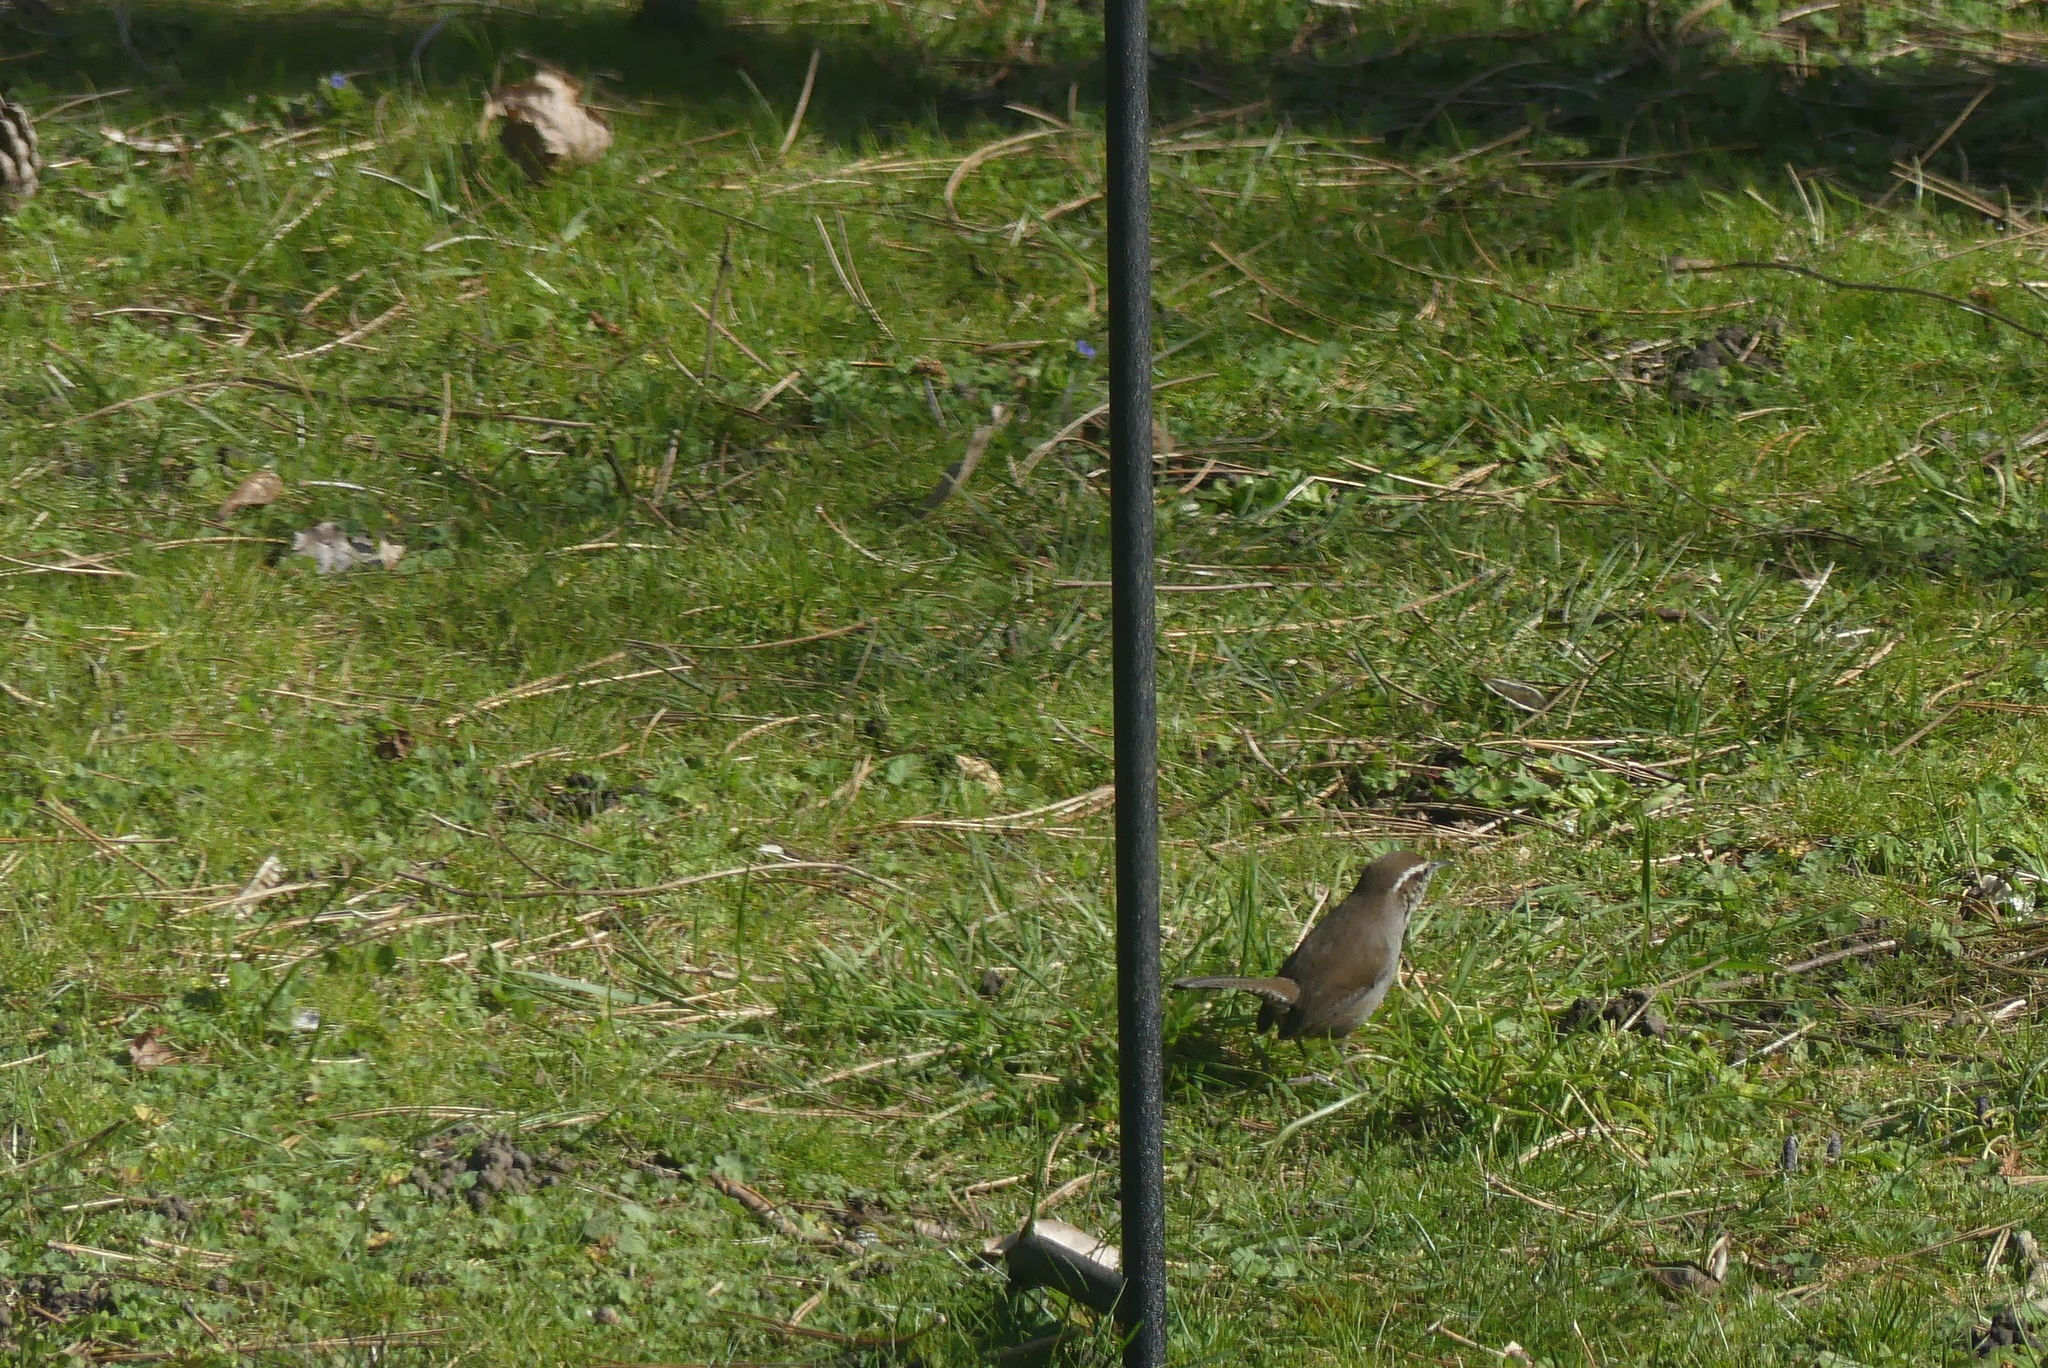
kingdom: Animalia
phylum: Chordata
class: Aves
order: Passeriformes
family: Troglodytidae
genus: Thryomanes
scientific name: Thryomanes bewickii
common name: Bewick's wren
